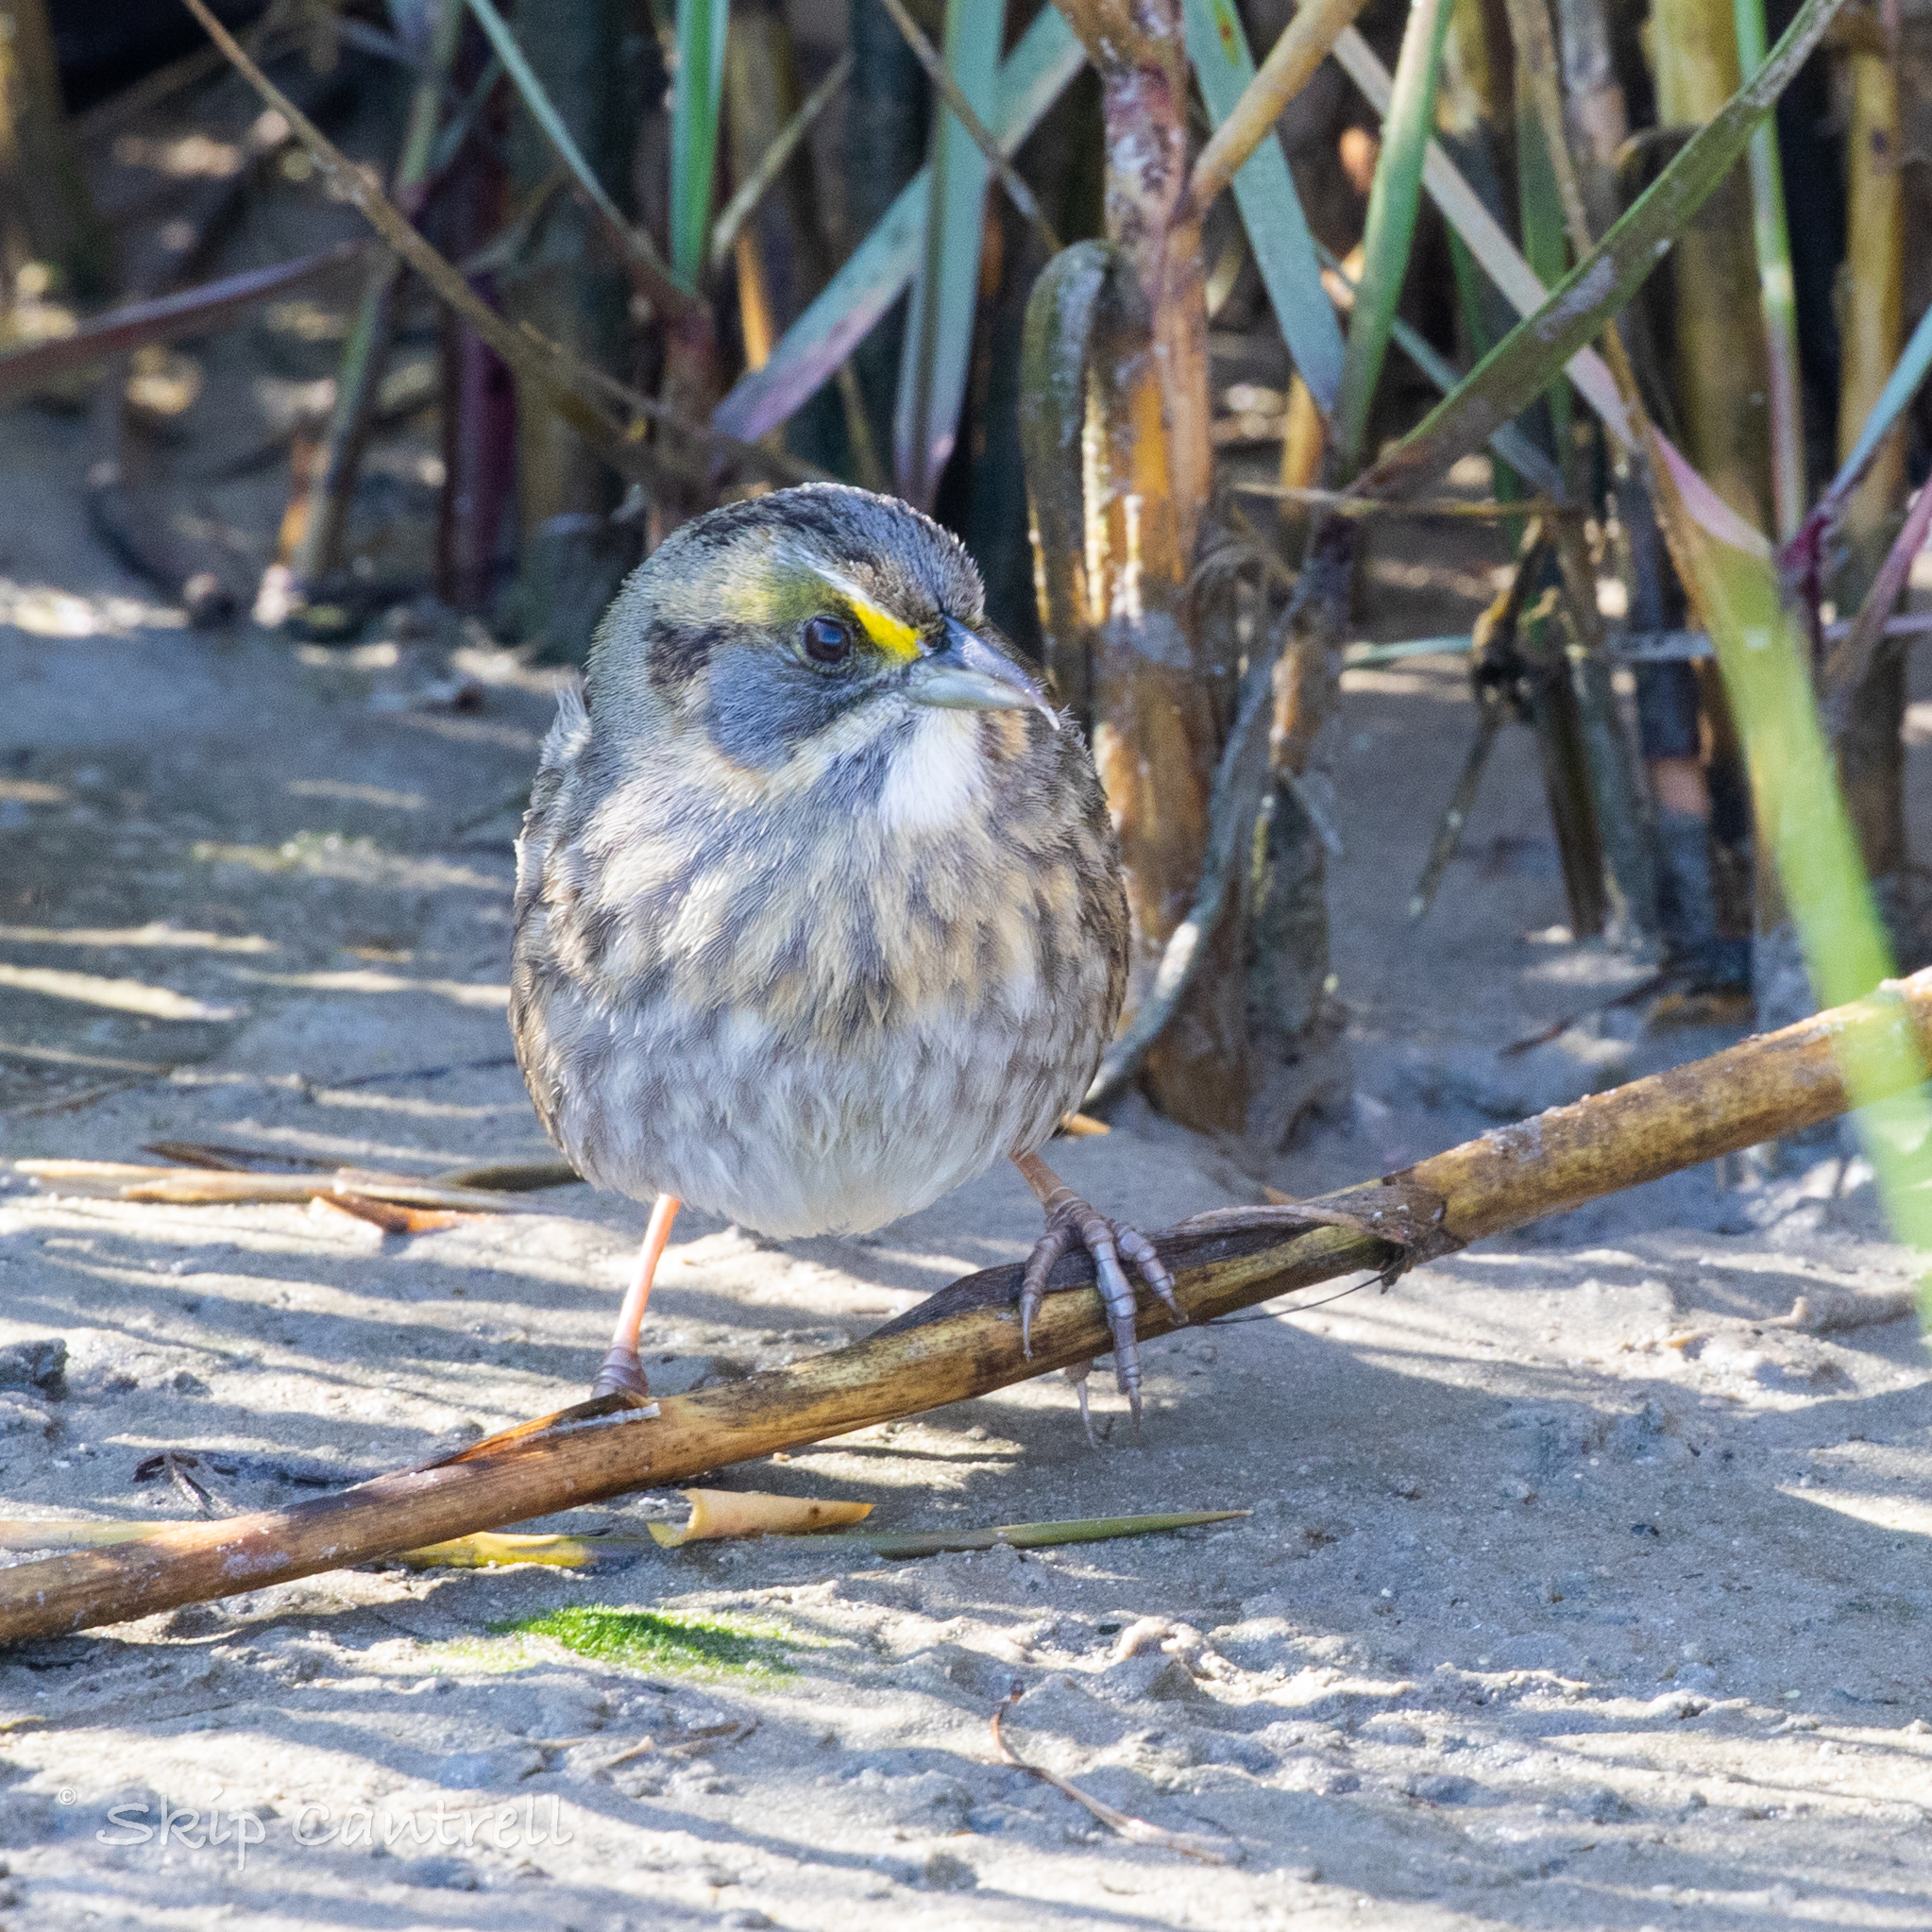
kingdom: Animalia
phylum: Chordata
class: Aves
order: Passeriformes
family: Passerellidae
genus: Ammospiza
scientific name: Ammospiza maritima
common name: Seaside sparrow
